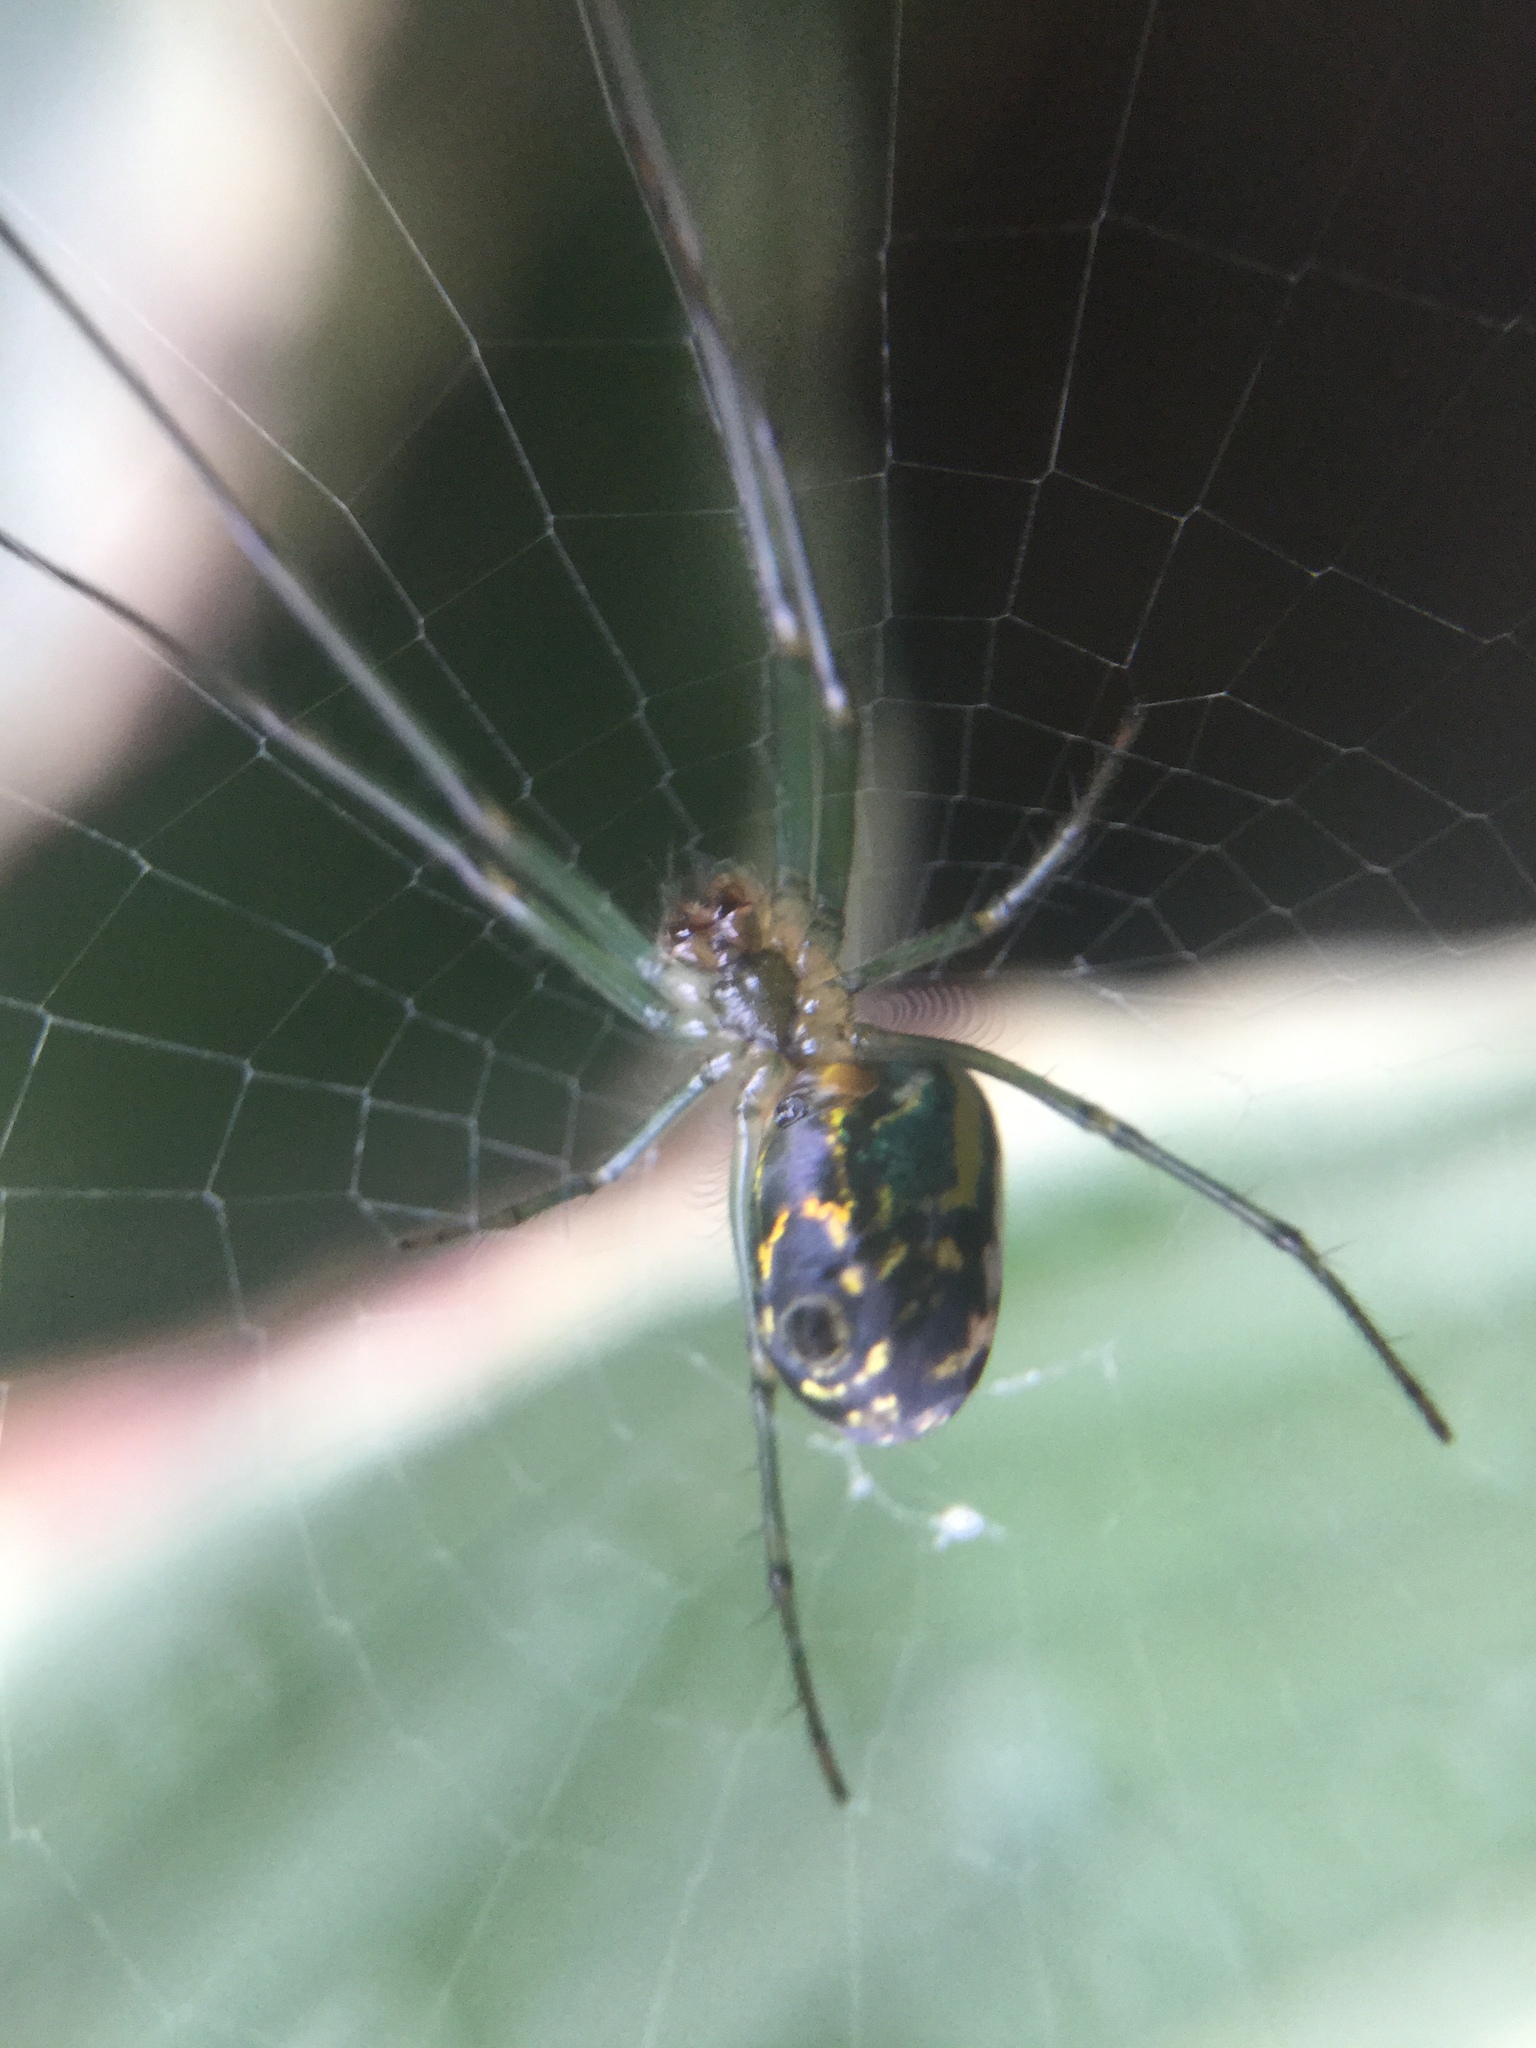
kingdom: Animalia
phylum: Arthropoda
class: Arachnida
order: Araneae
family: Tetragnathidae
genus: Leucauge
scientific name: Leucauge venusta
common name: Longjawed orb weavers
